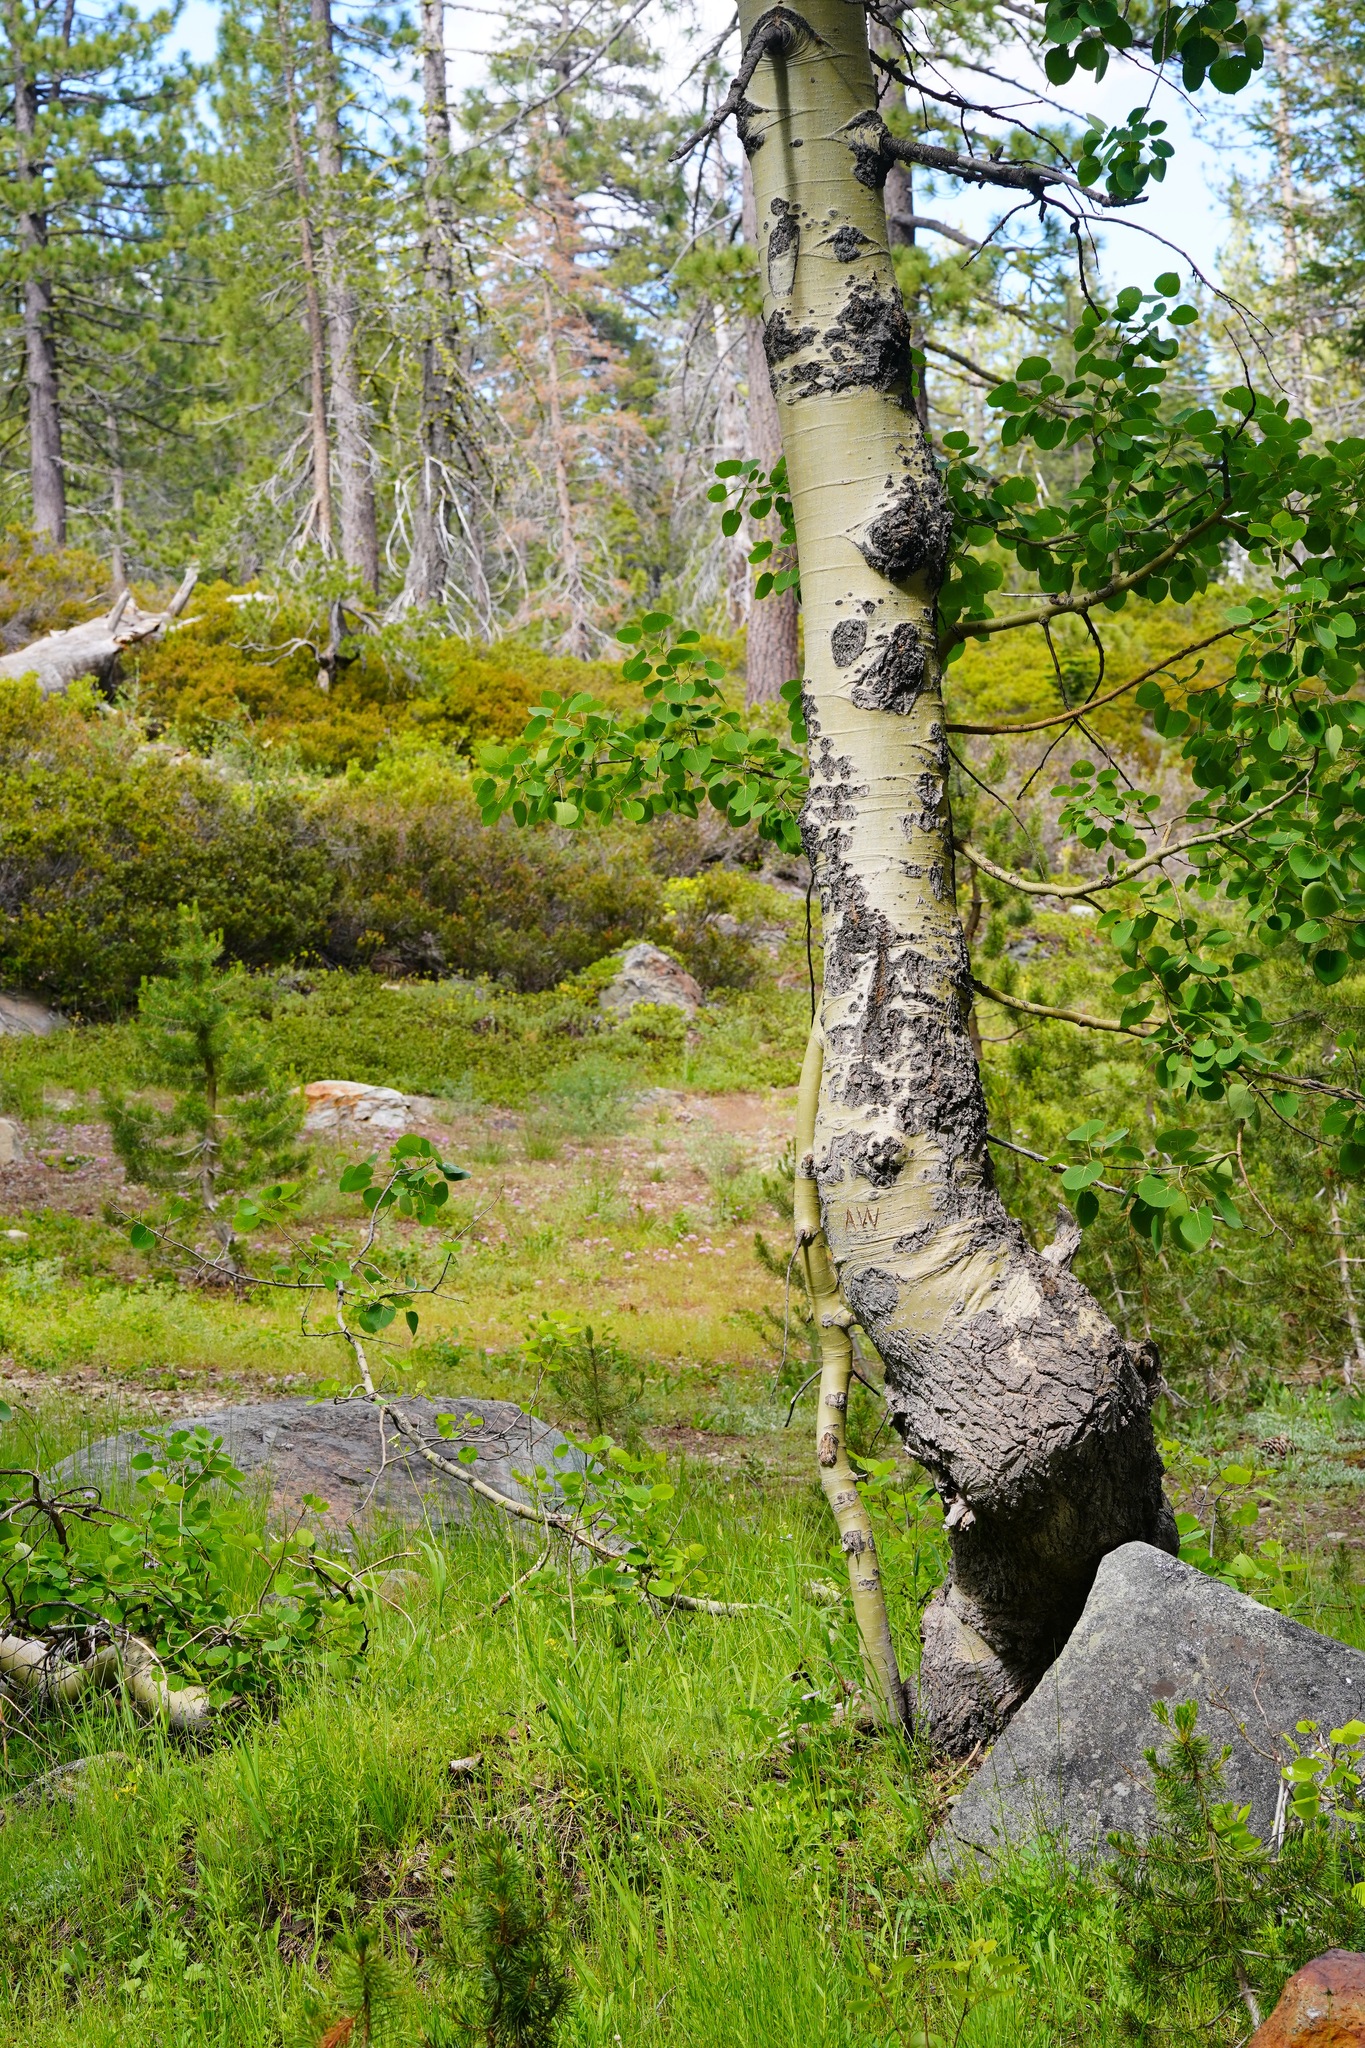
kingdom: Plantae
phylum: Tracheophyta
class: Magnoliopsida
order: Malpighiales
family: Salicaceae
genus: Populus
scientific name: Populus tremuloides
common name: Quaking aspen
